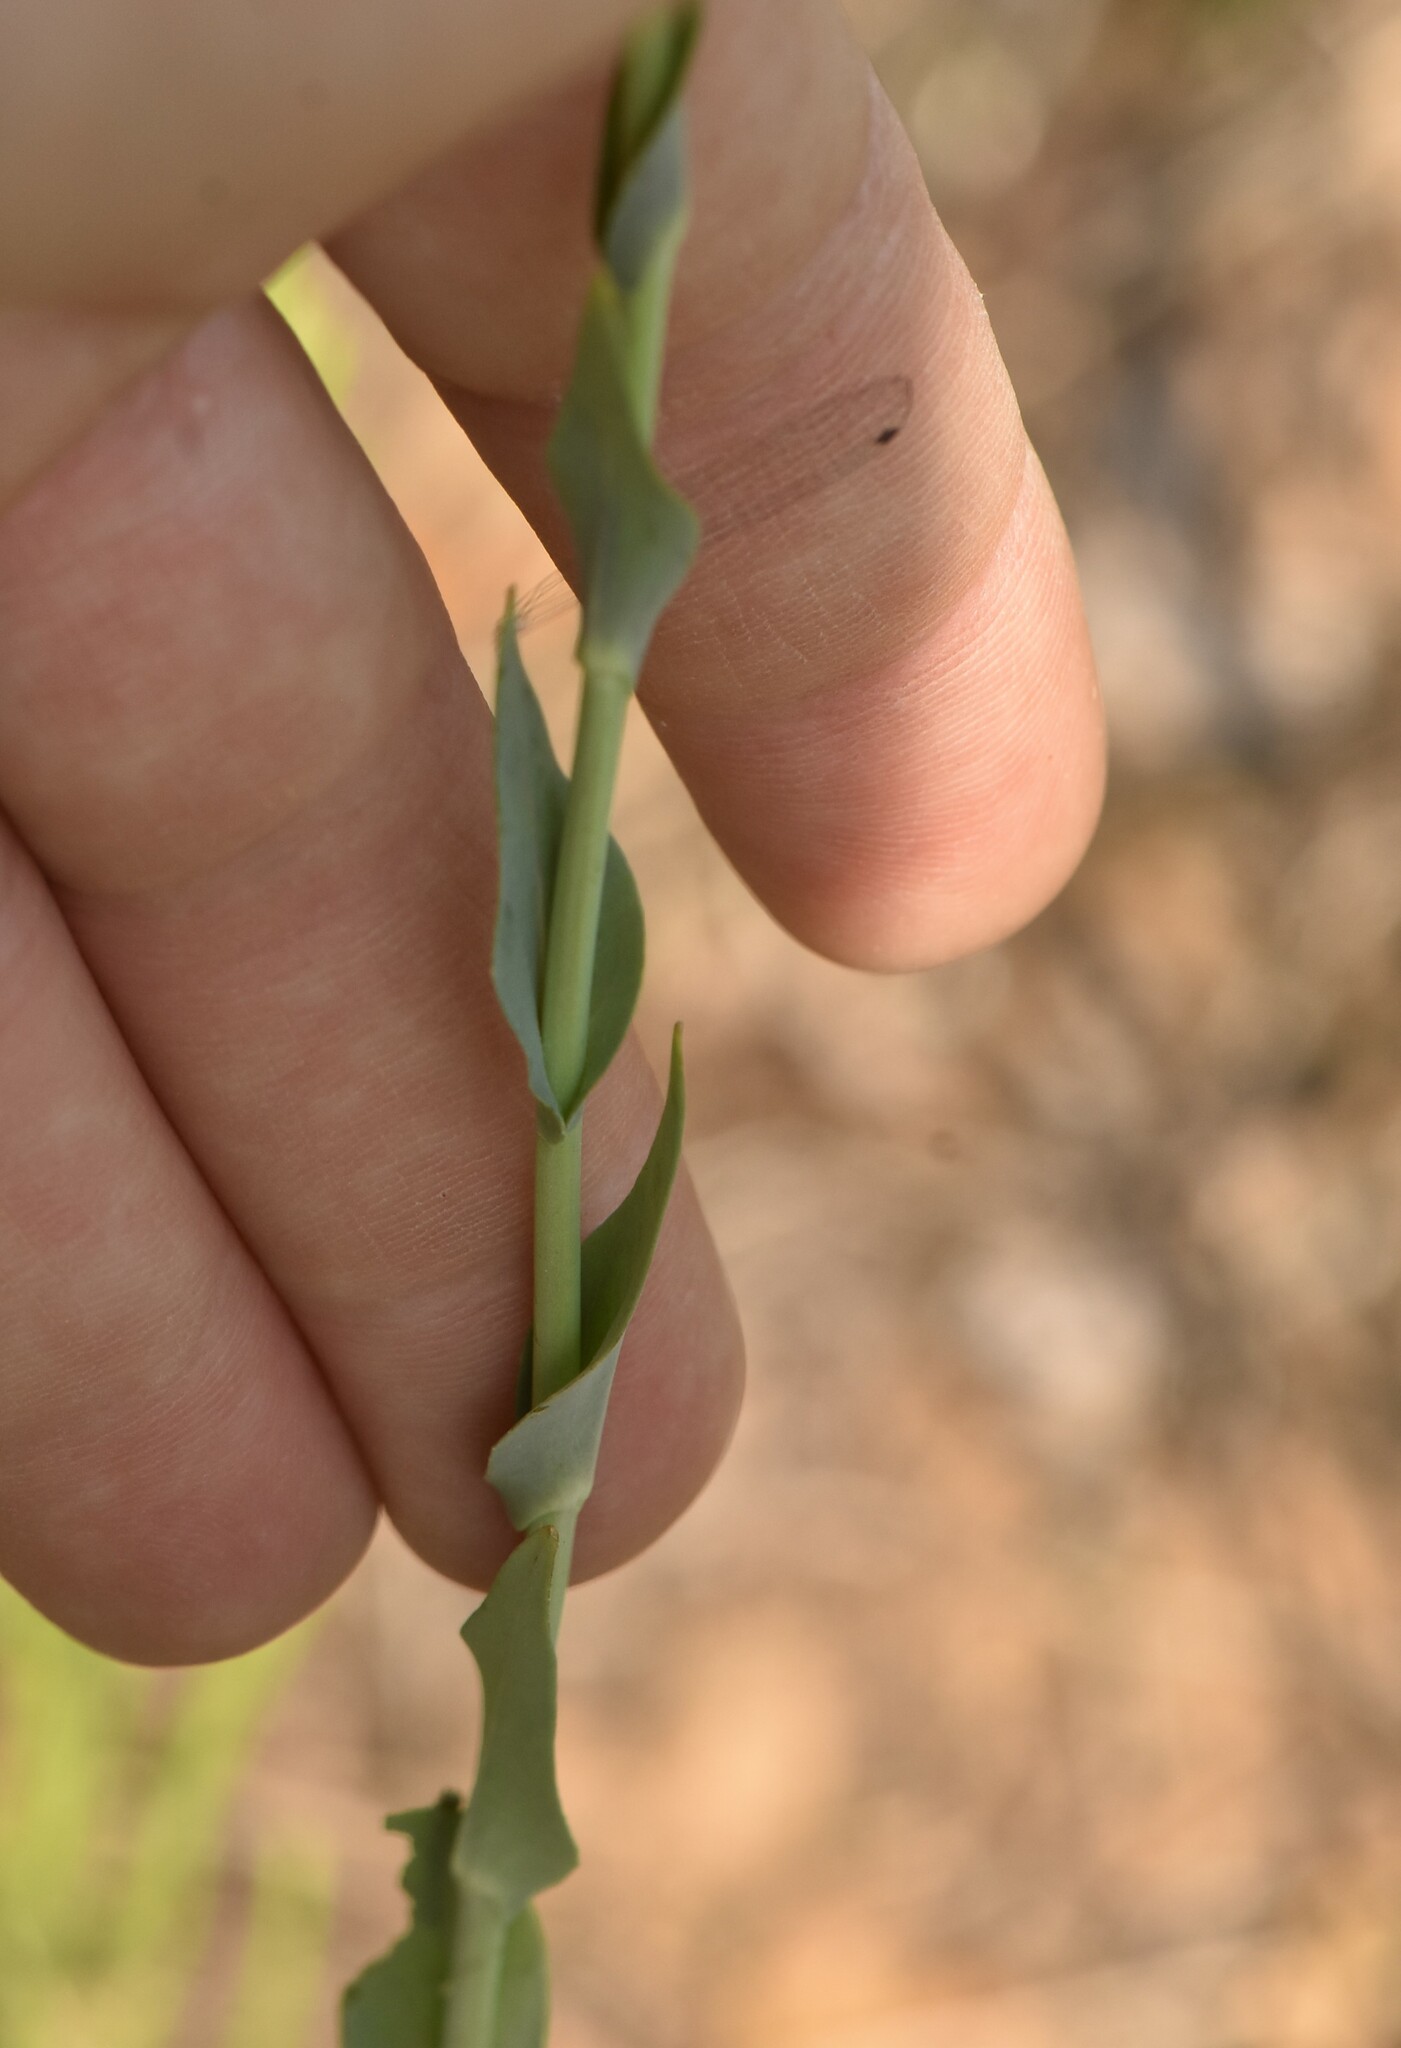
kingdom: Plantae
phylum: Tracheophyta
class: Magnoliopsida
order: Brassicales
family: Brassicaceae
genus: Turritis
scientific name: Turritis glabra
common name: Tower rockcress
